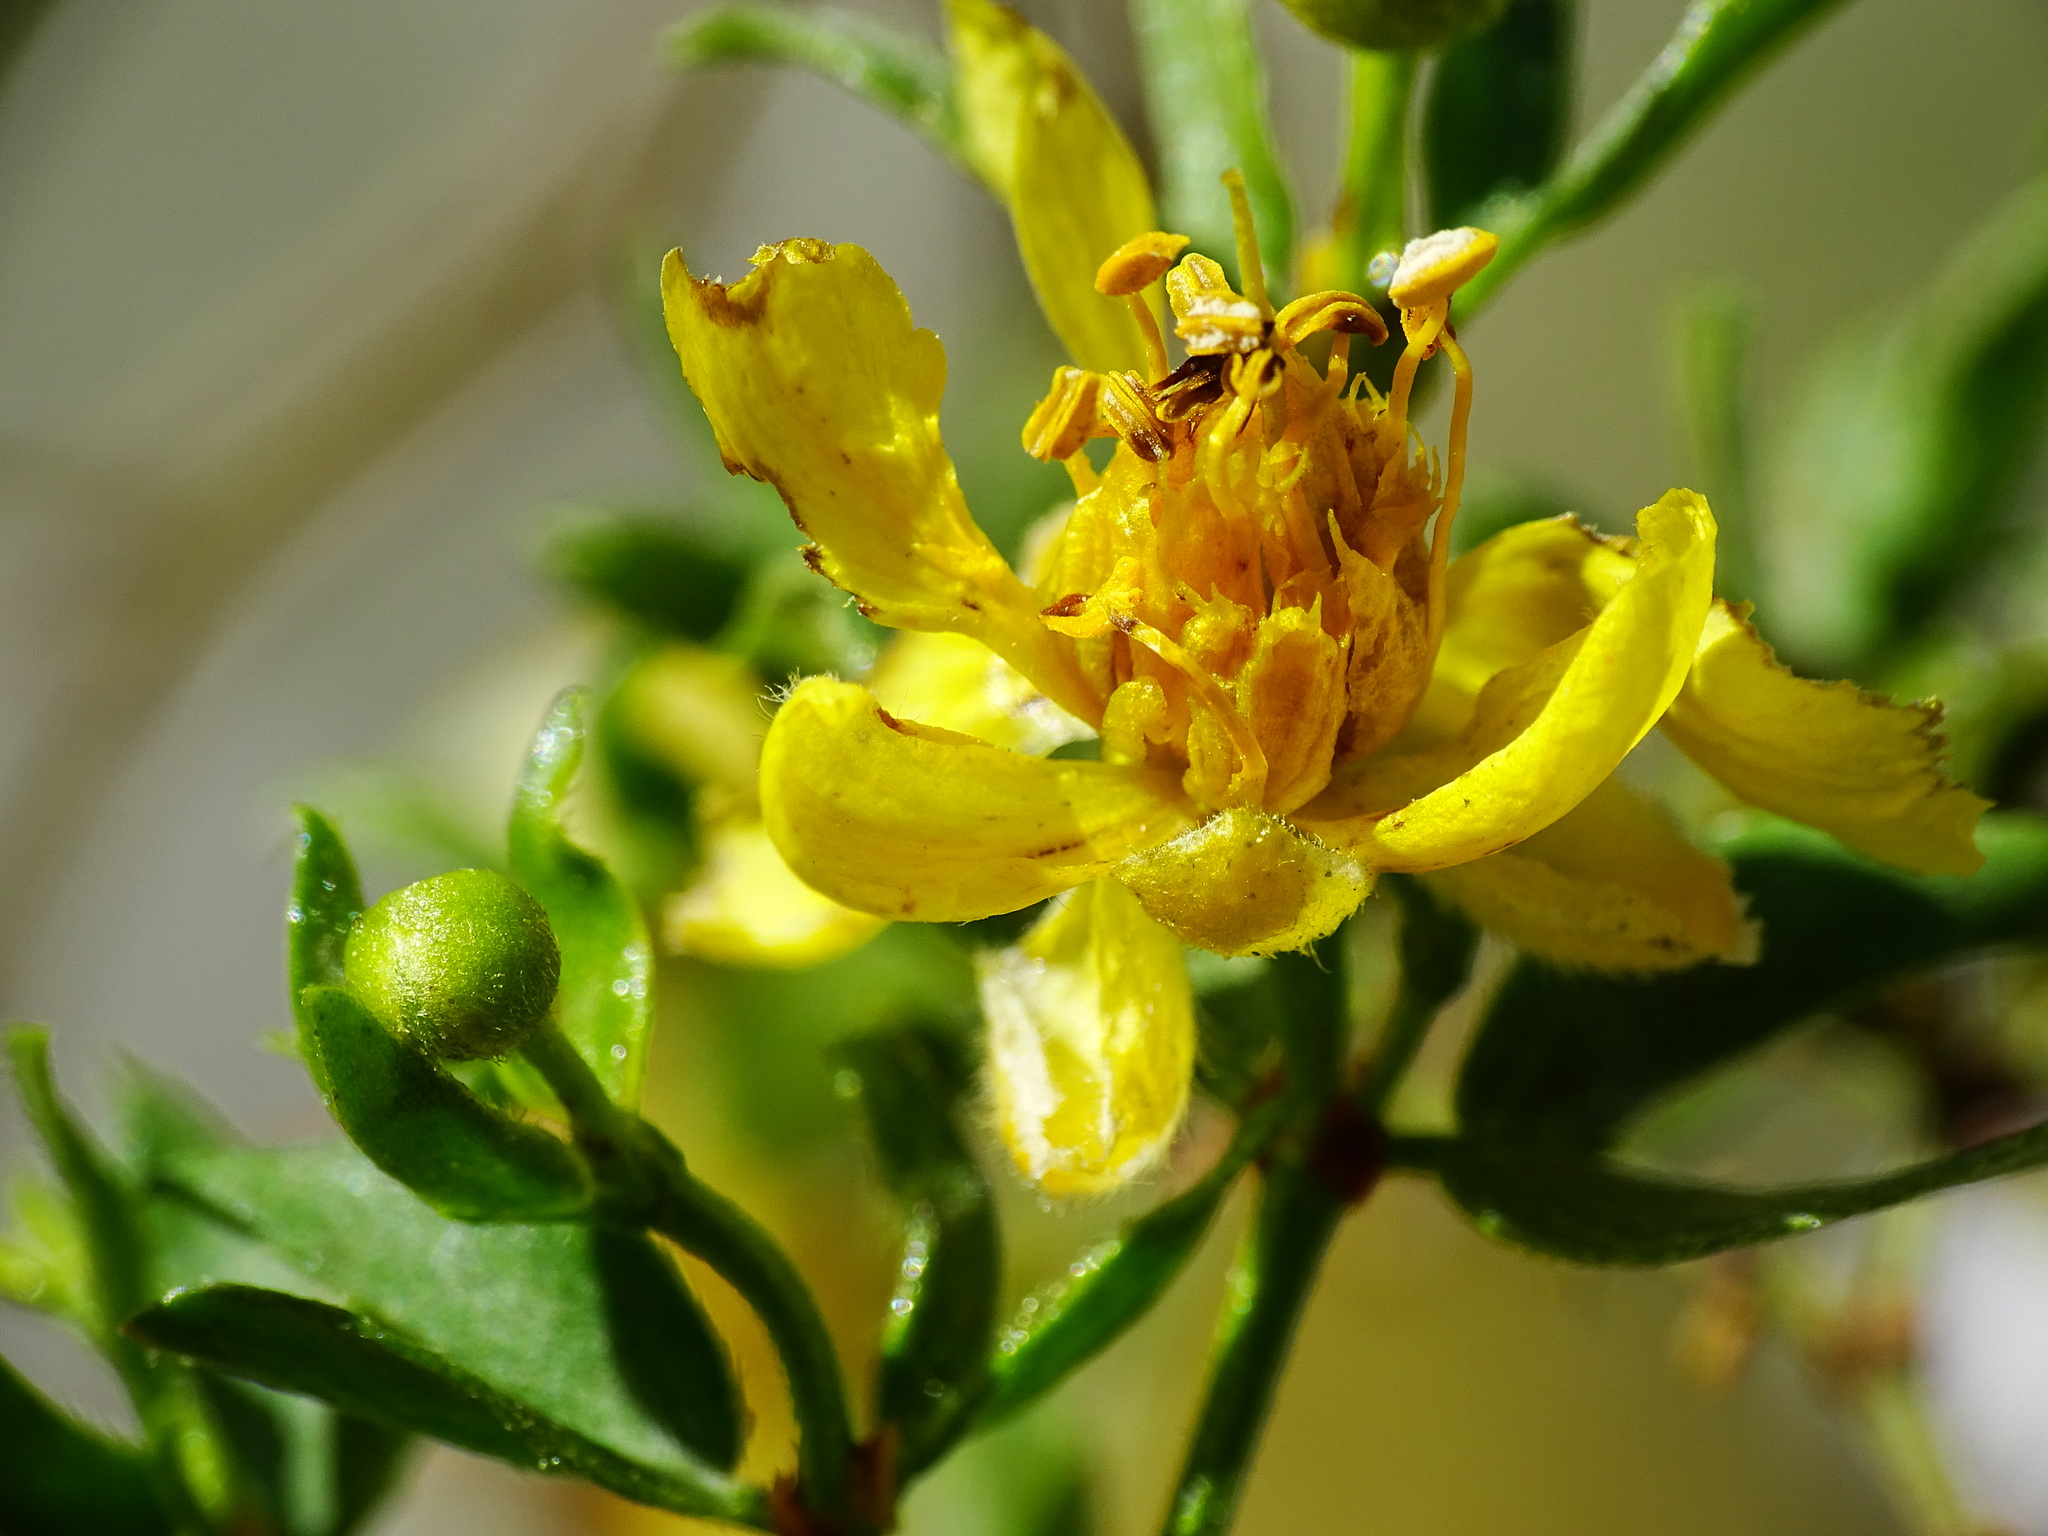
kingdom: Plantae
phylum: Tracheophyta
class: Magnoliopsida
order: Zygophyllales
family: Zygophyllaceae
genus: Larrea
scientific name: Larrea tridentata
